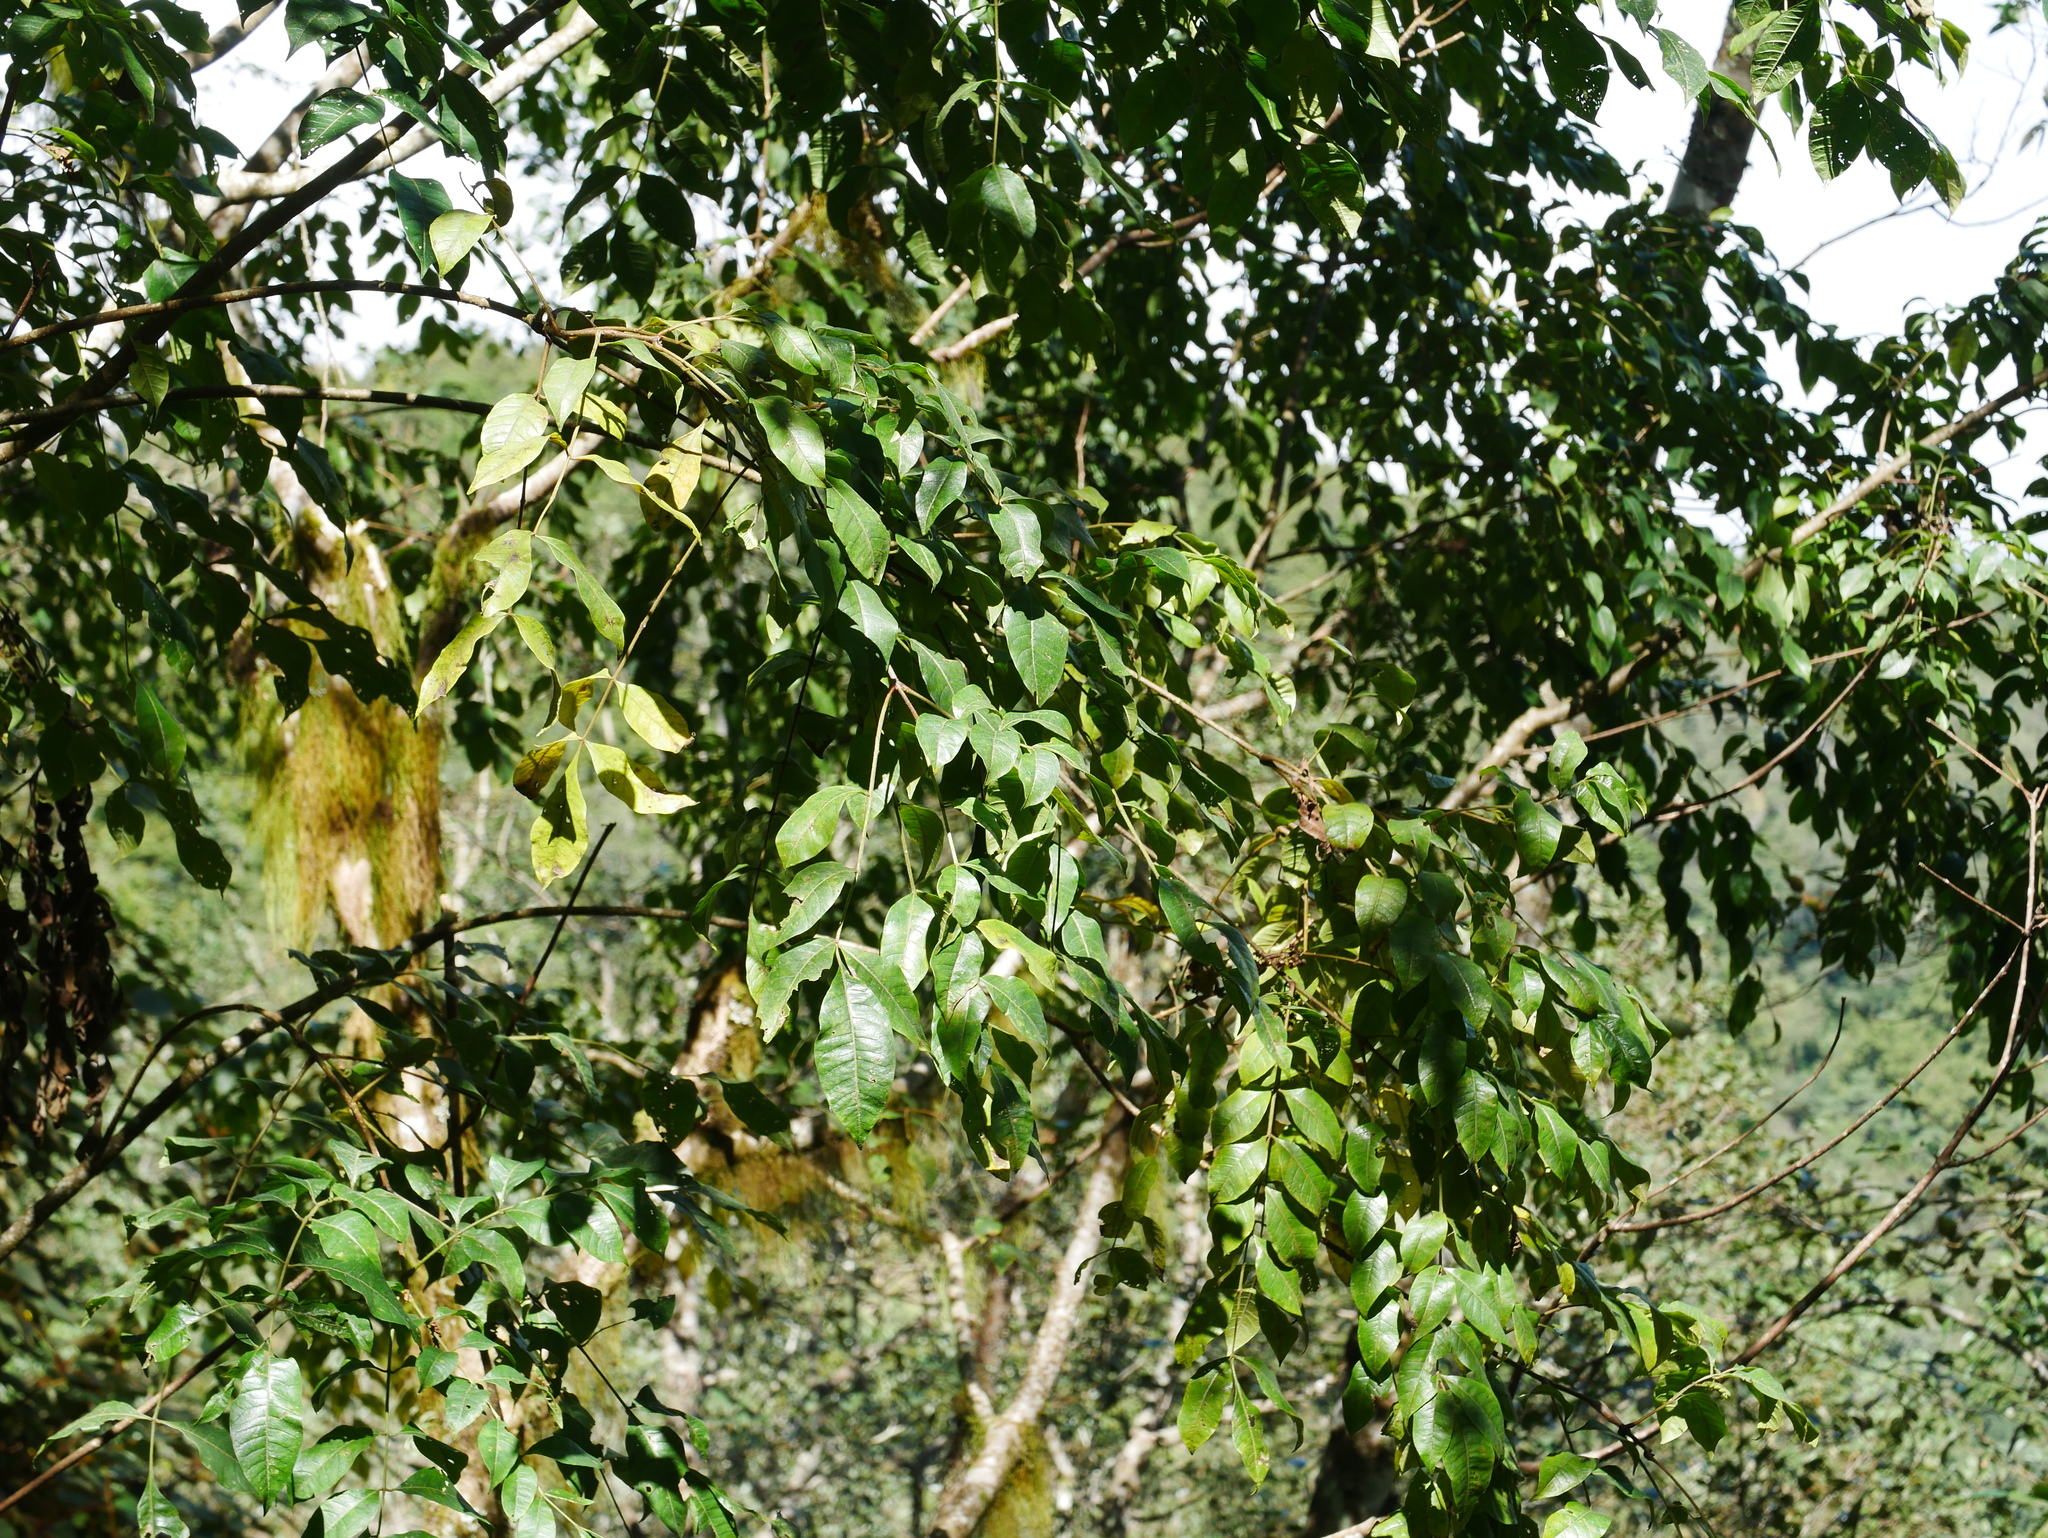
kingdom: Plantae
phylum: Tracheophyta
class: Magnoliopsida
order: Sapindales
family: Rutaceae
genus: Tetradium
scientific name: Tetradium ruticarpum
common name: Evodia
